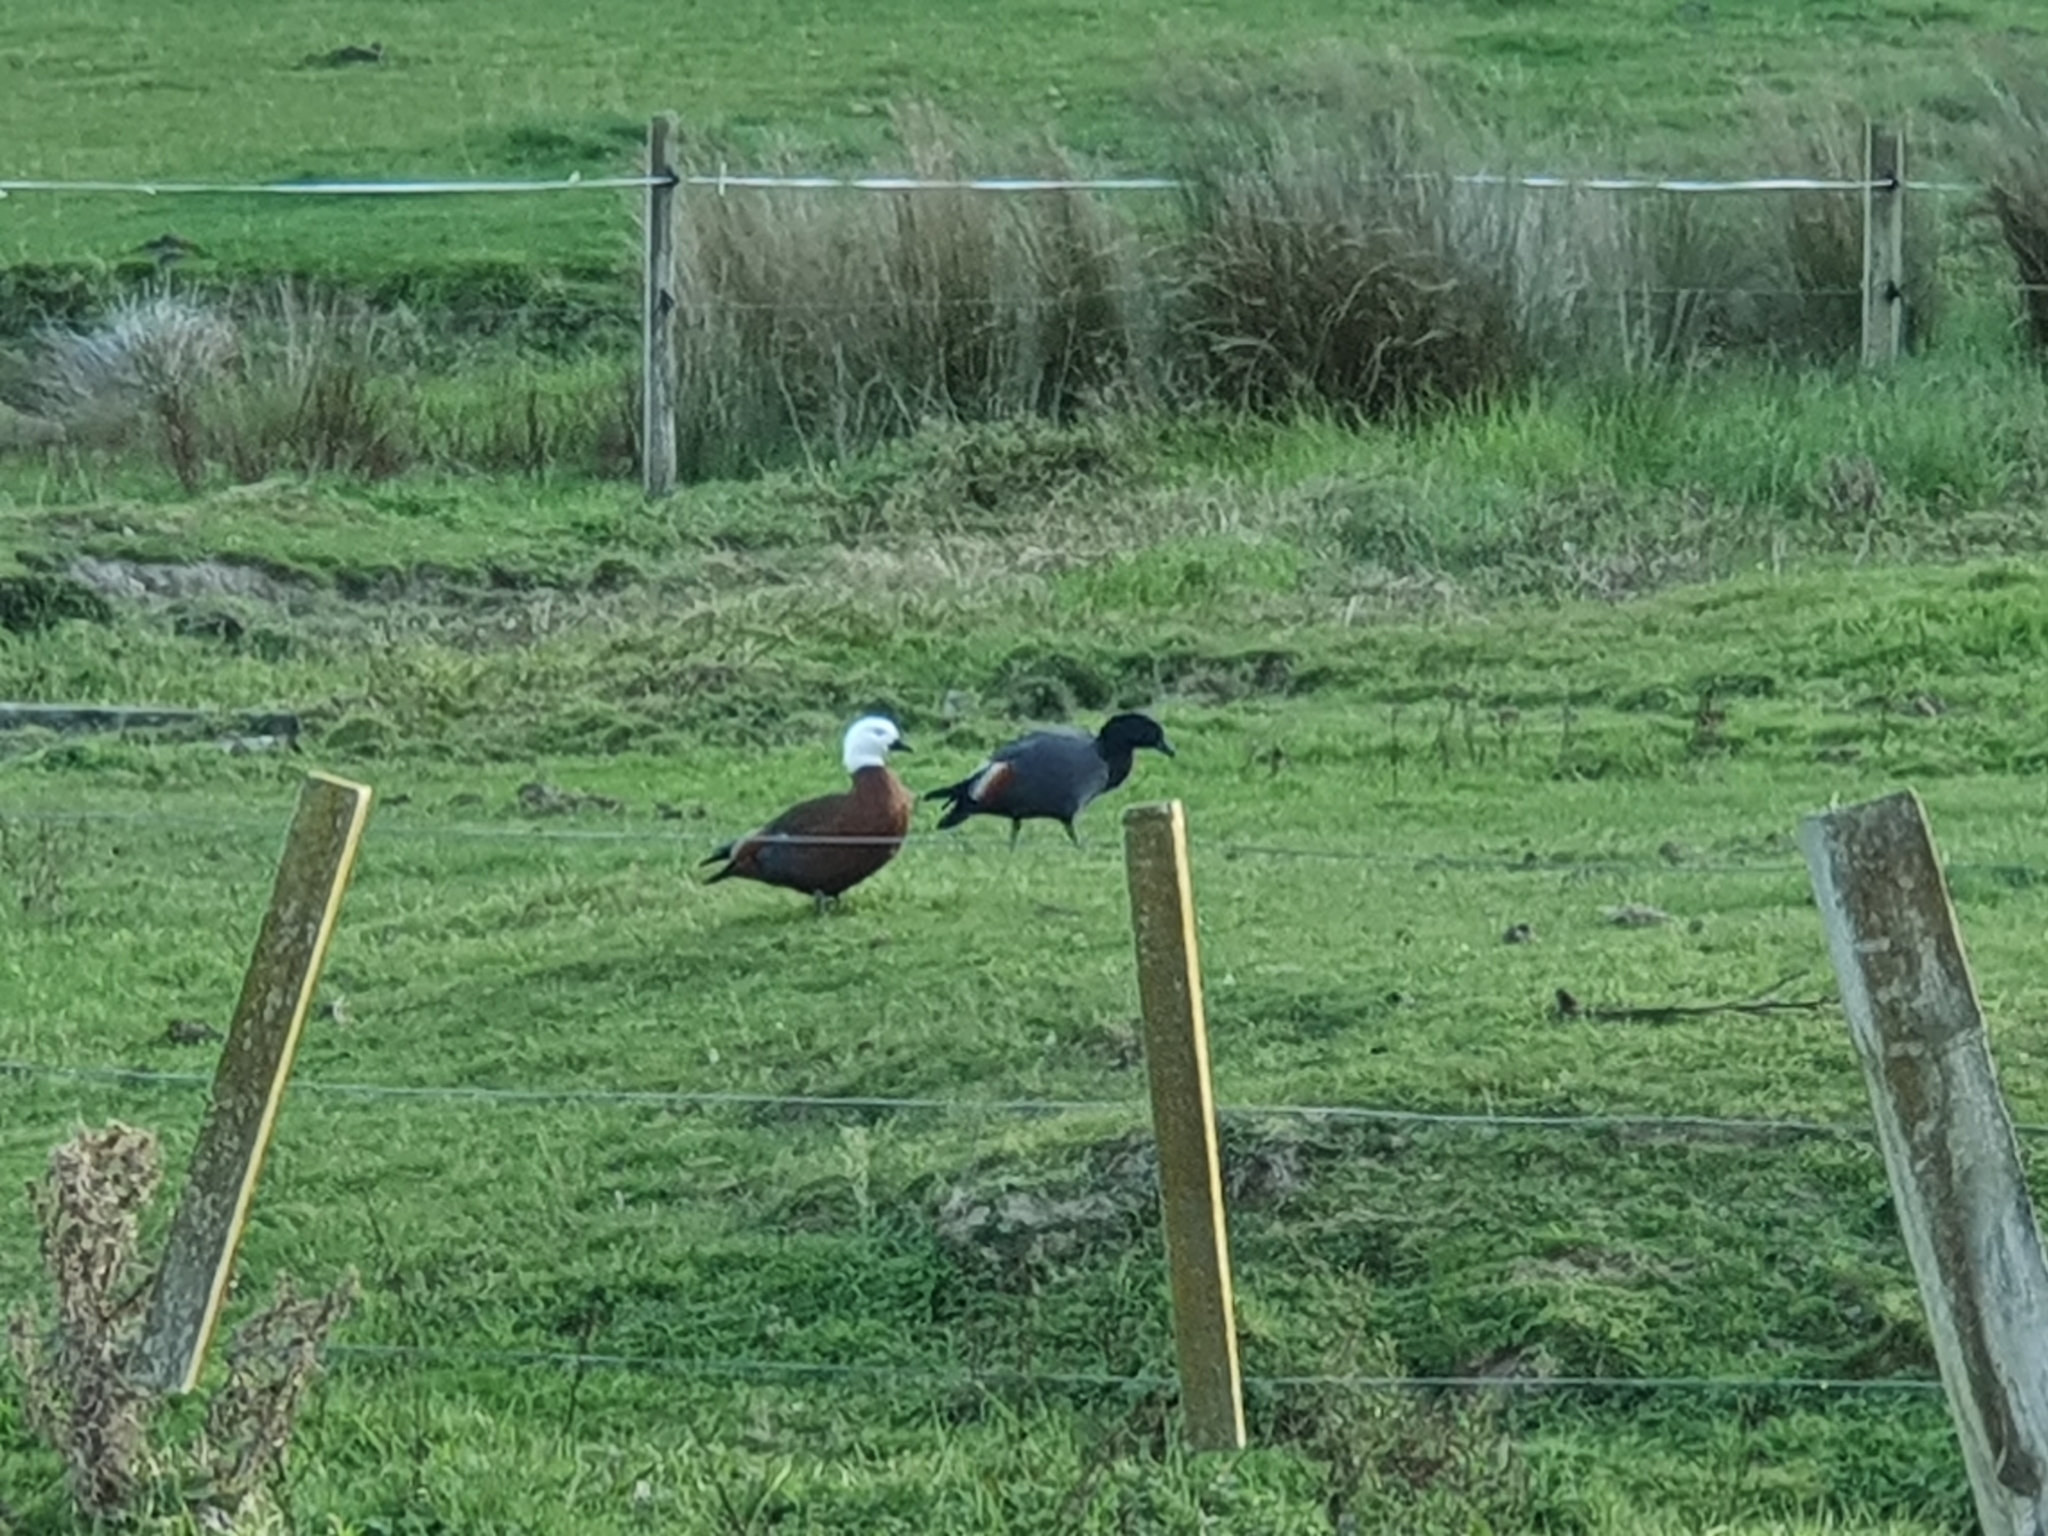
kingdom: Animalia
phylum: Chordata
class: Aves
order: Anseriformes
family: Anatidae
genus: Tadorna
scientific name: Tadorna variegata
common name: Paradise shelduck
